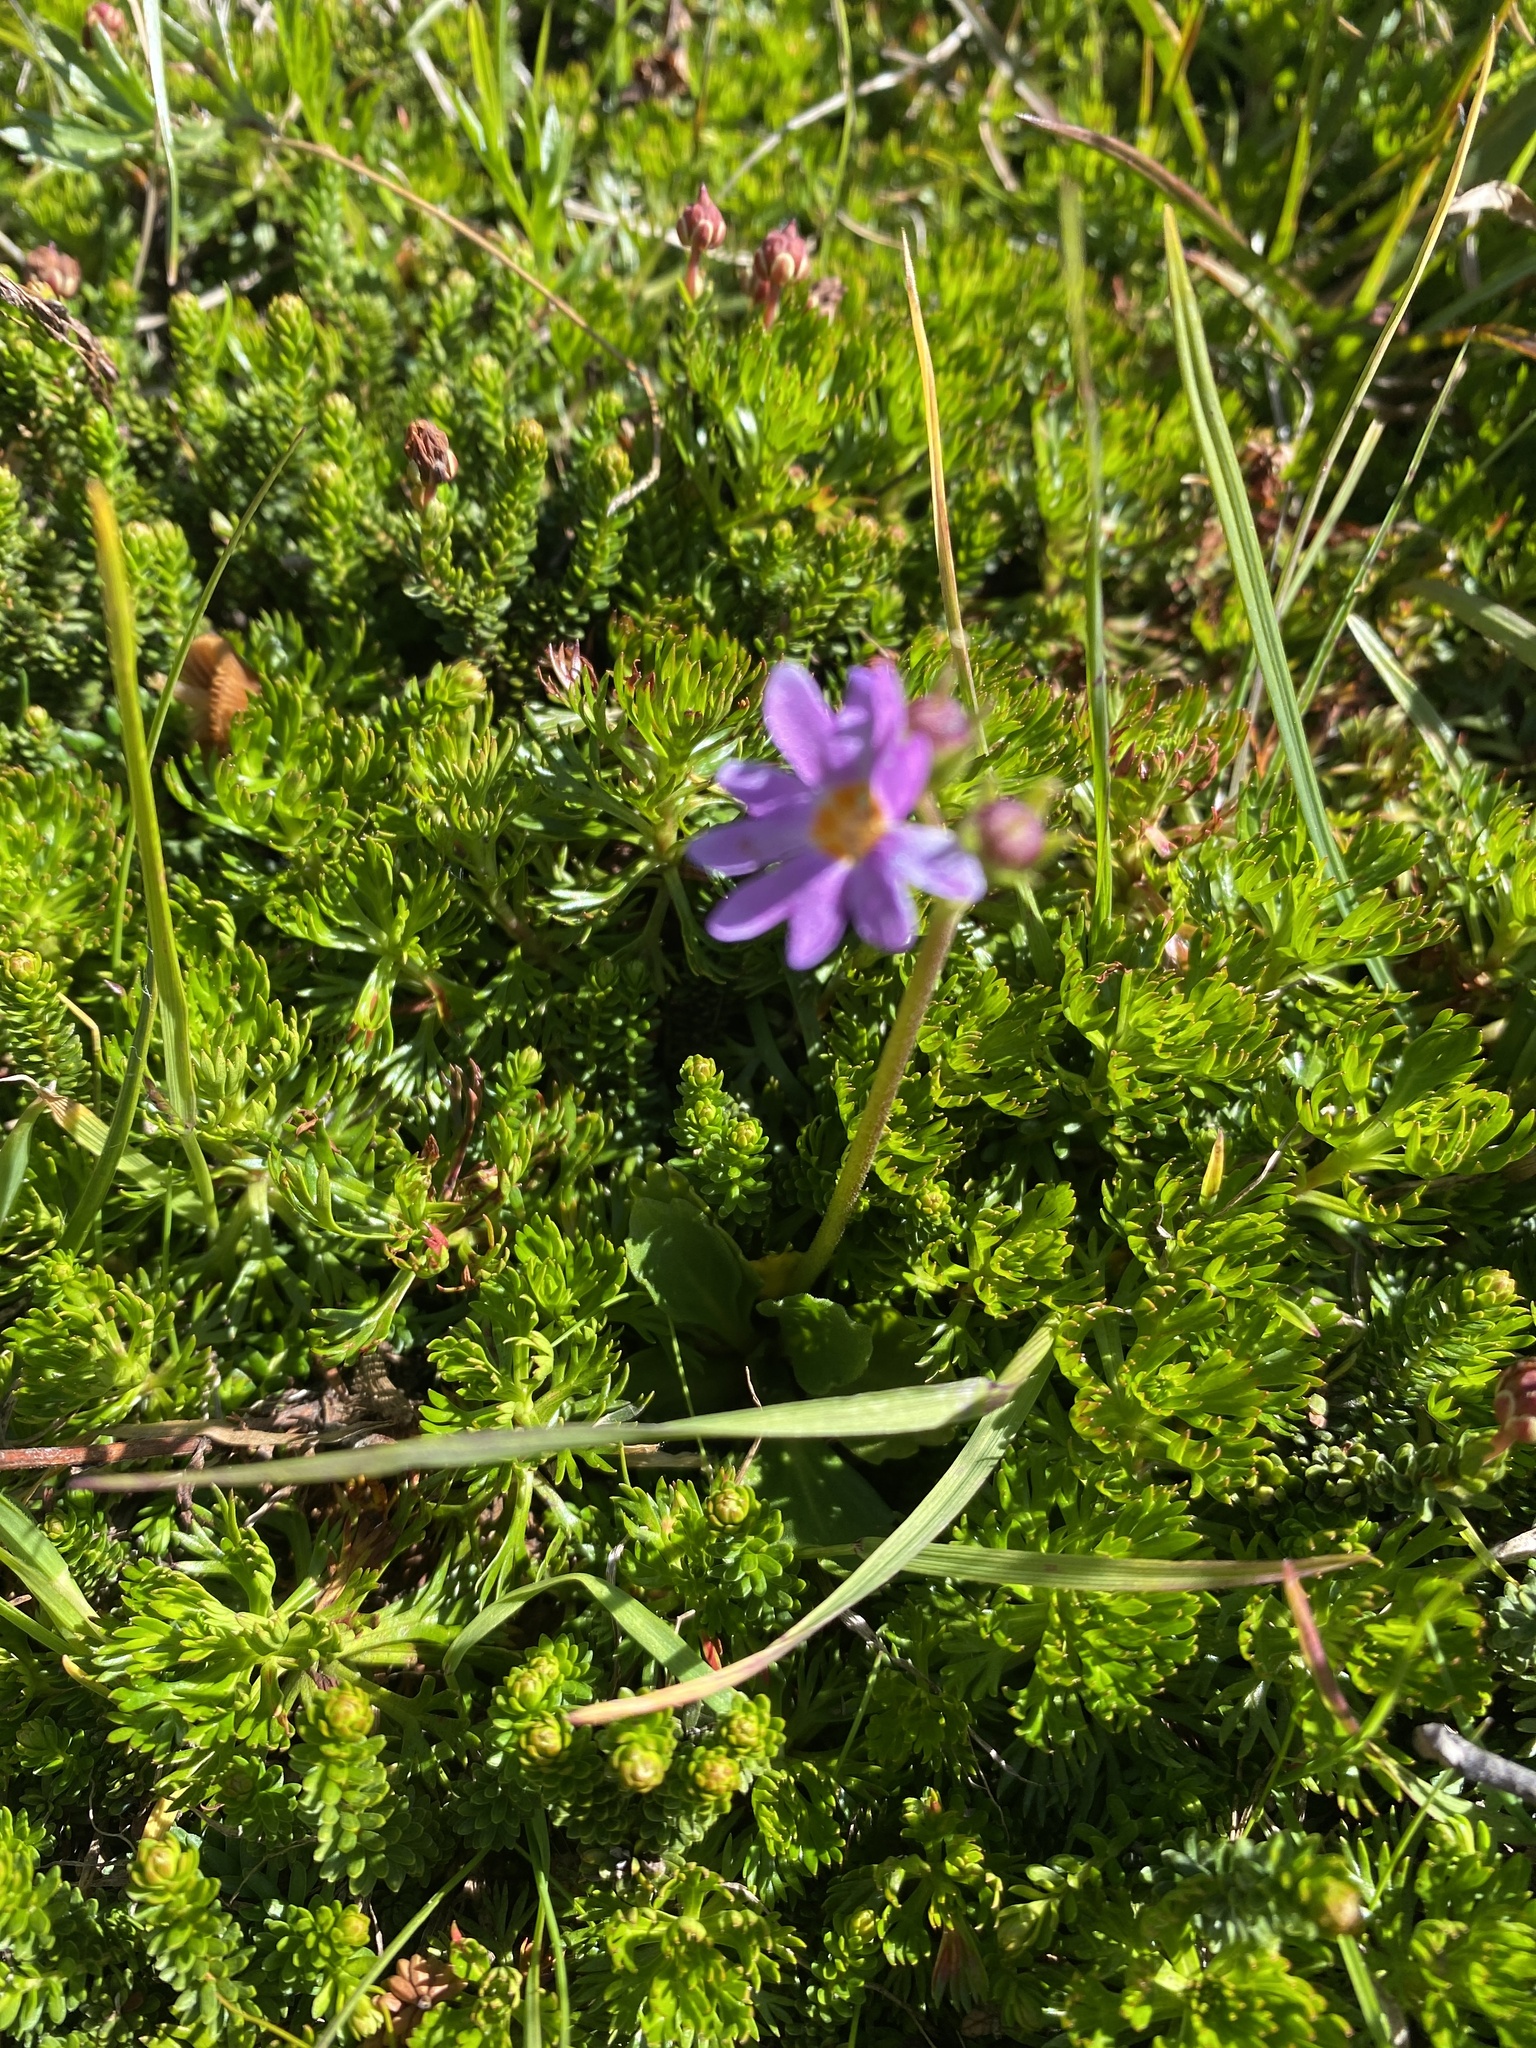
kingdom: Plantae
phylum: Tracheophyta
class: Magnoliopsida
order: Ericales
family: Primulaceae
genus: Primula
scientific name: Primula cuneifolia
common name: Wedge-leaved primrose
